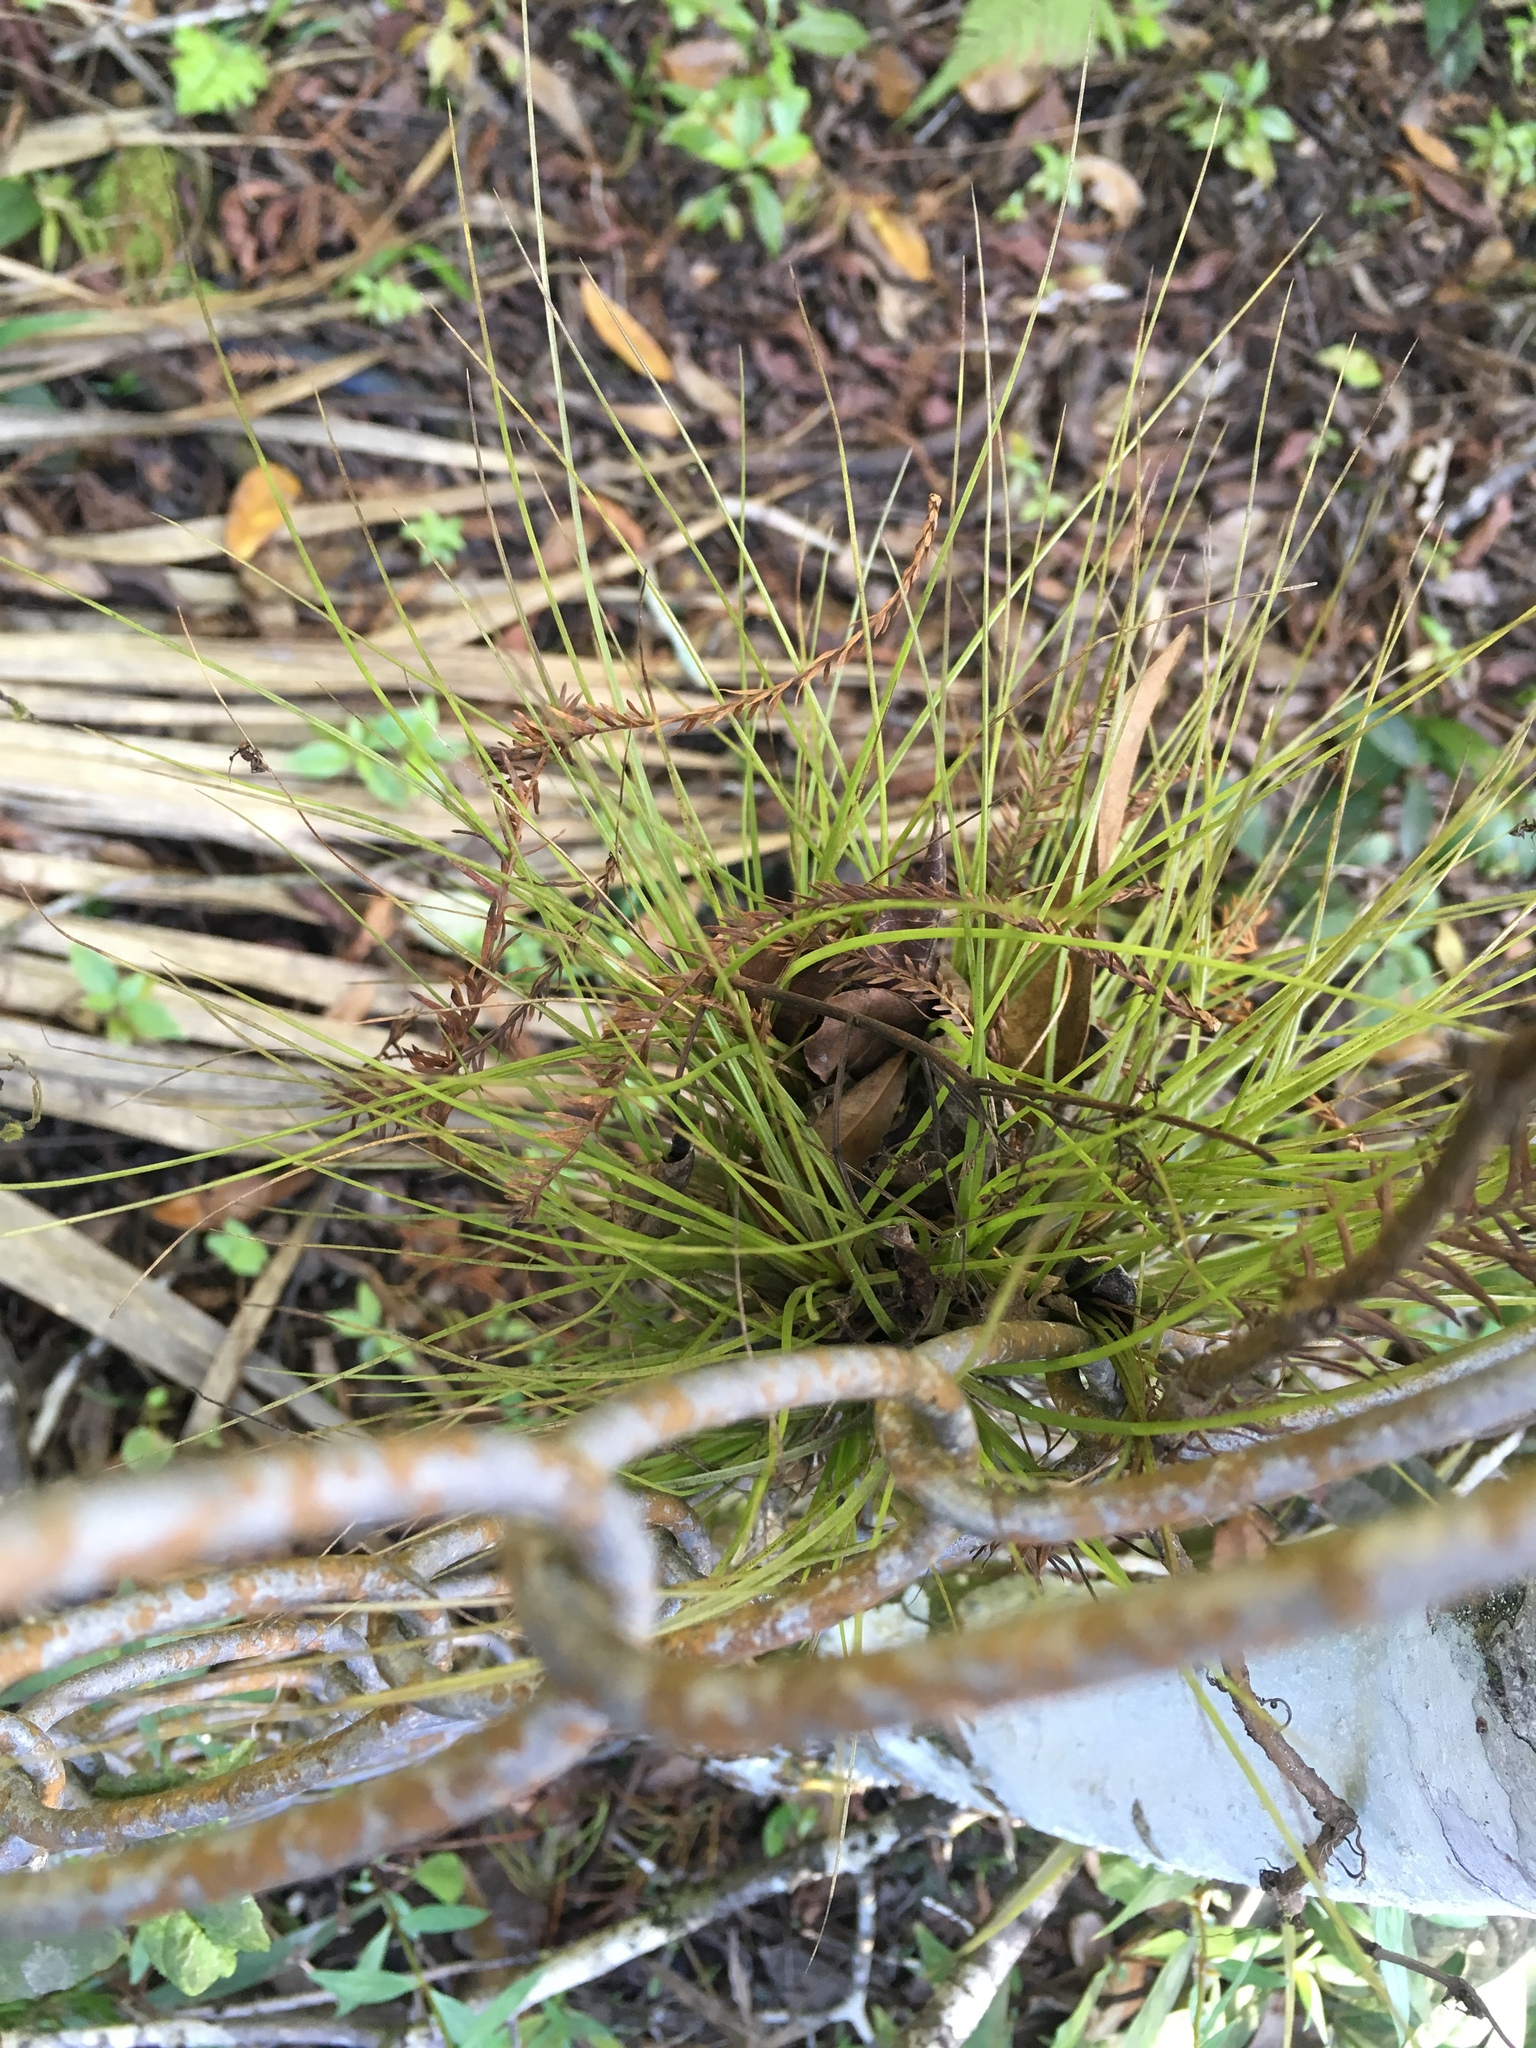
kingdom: Plantae
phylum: Tracheophyta
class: Liliopsida
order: Poales
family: Bromeliaceae
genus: Tillandsia
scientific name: Tillandsia setacea
